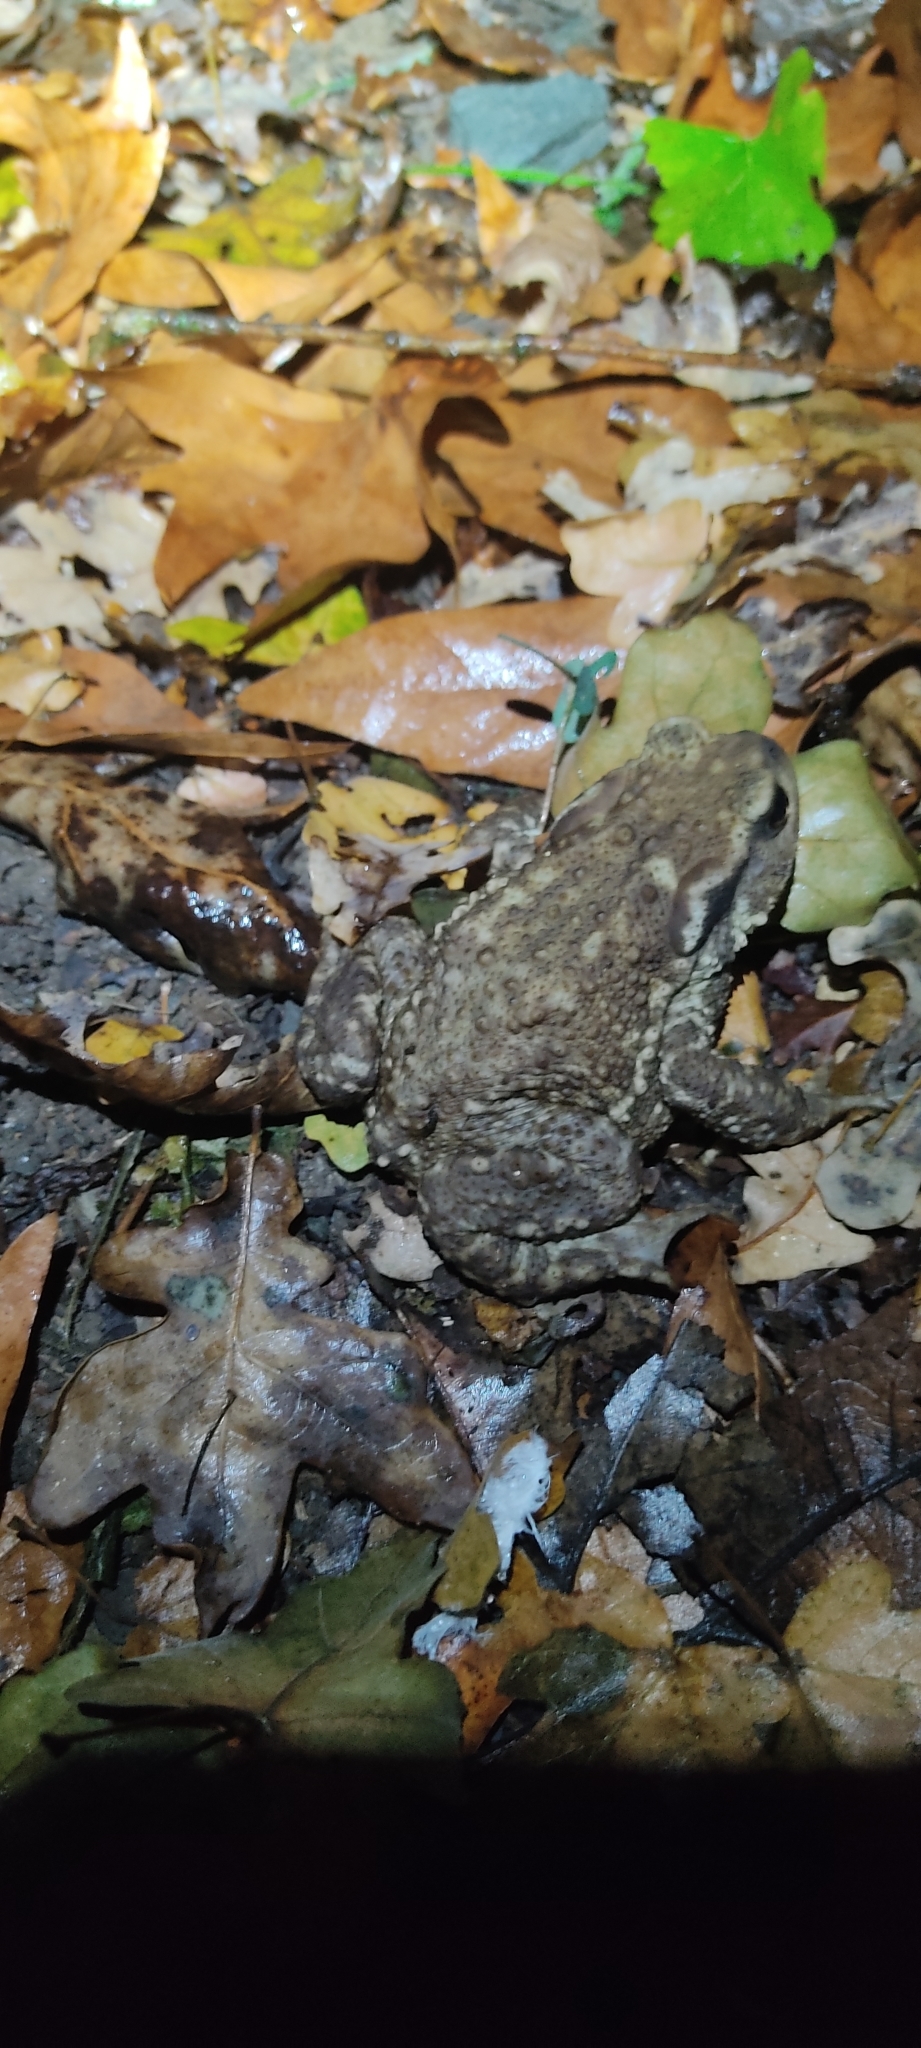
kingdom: Animalia
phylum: Chordata
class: Amphibia
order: Anura
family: Bufonidae
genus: Bufo
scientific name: Bufo spinosus
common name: Western common toad
